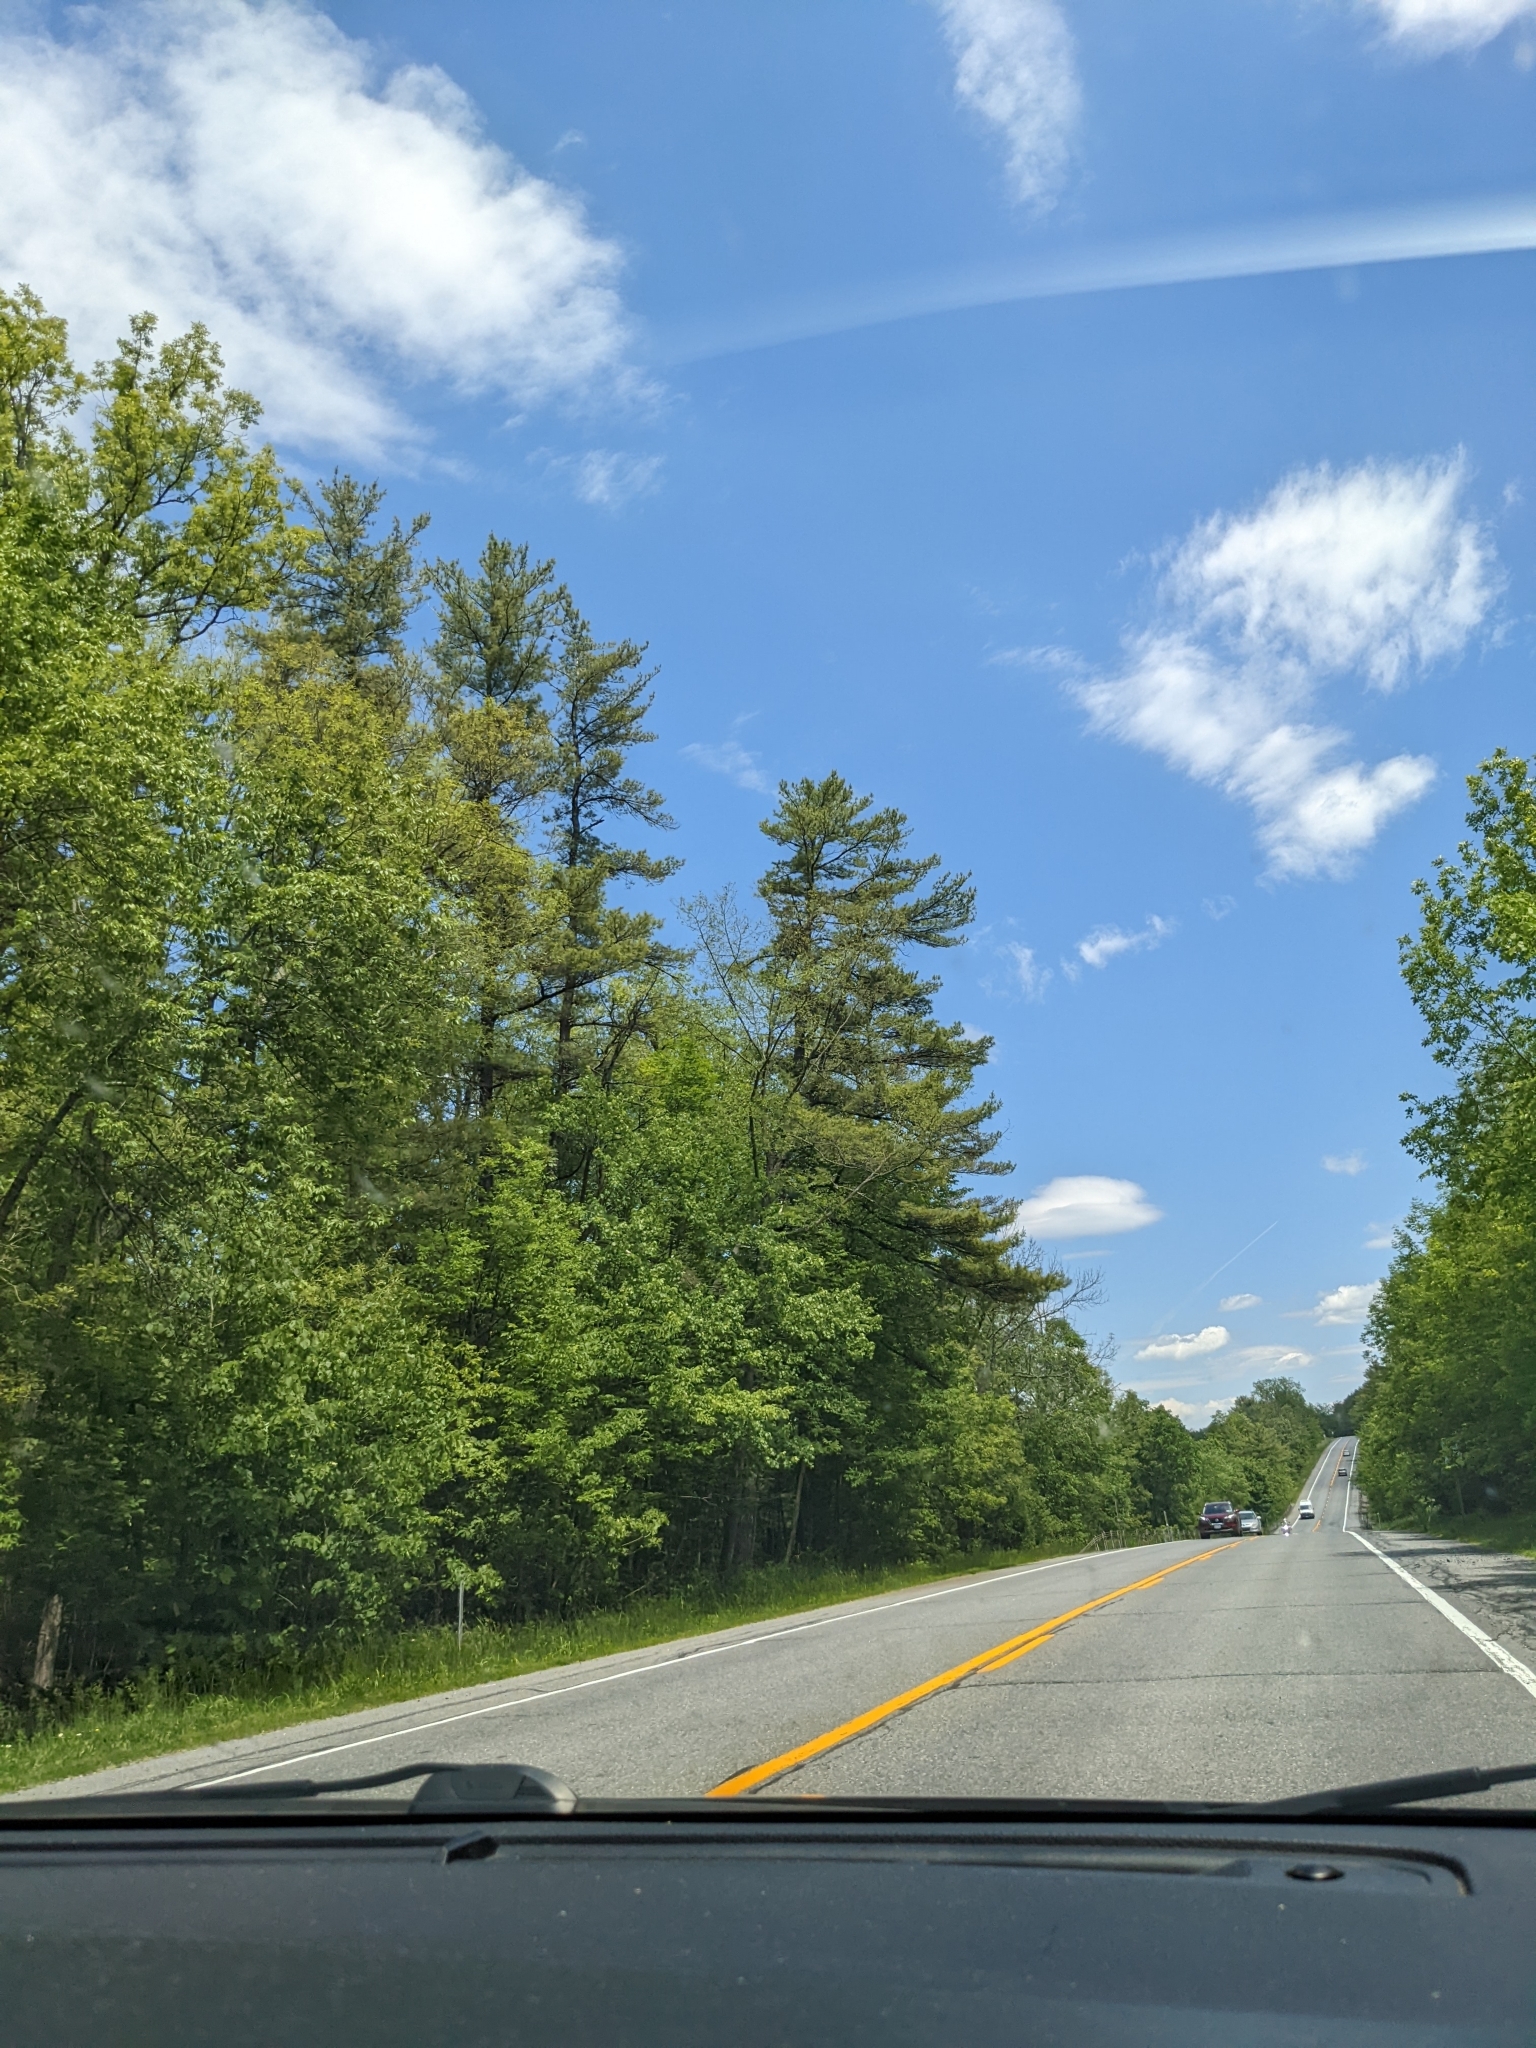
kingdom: Plantae
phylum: Tracheophyta
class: Pinopsida
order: Pinales
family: Pinaceae
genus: Pinus
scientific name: Pinus strobus
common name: Weymouth pine
